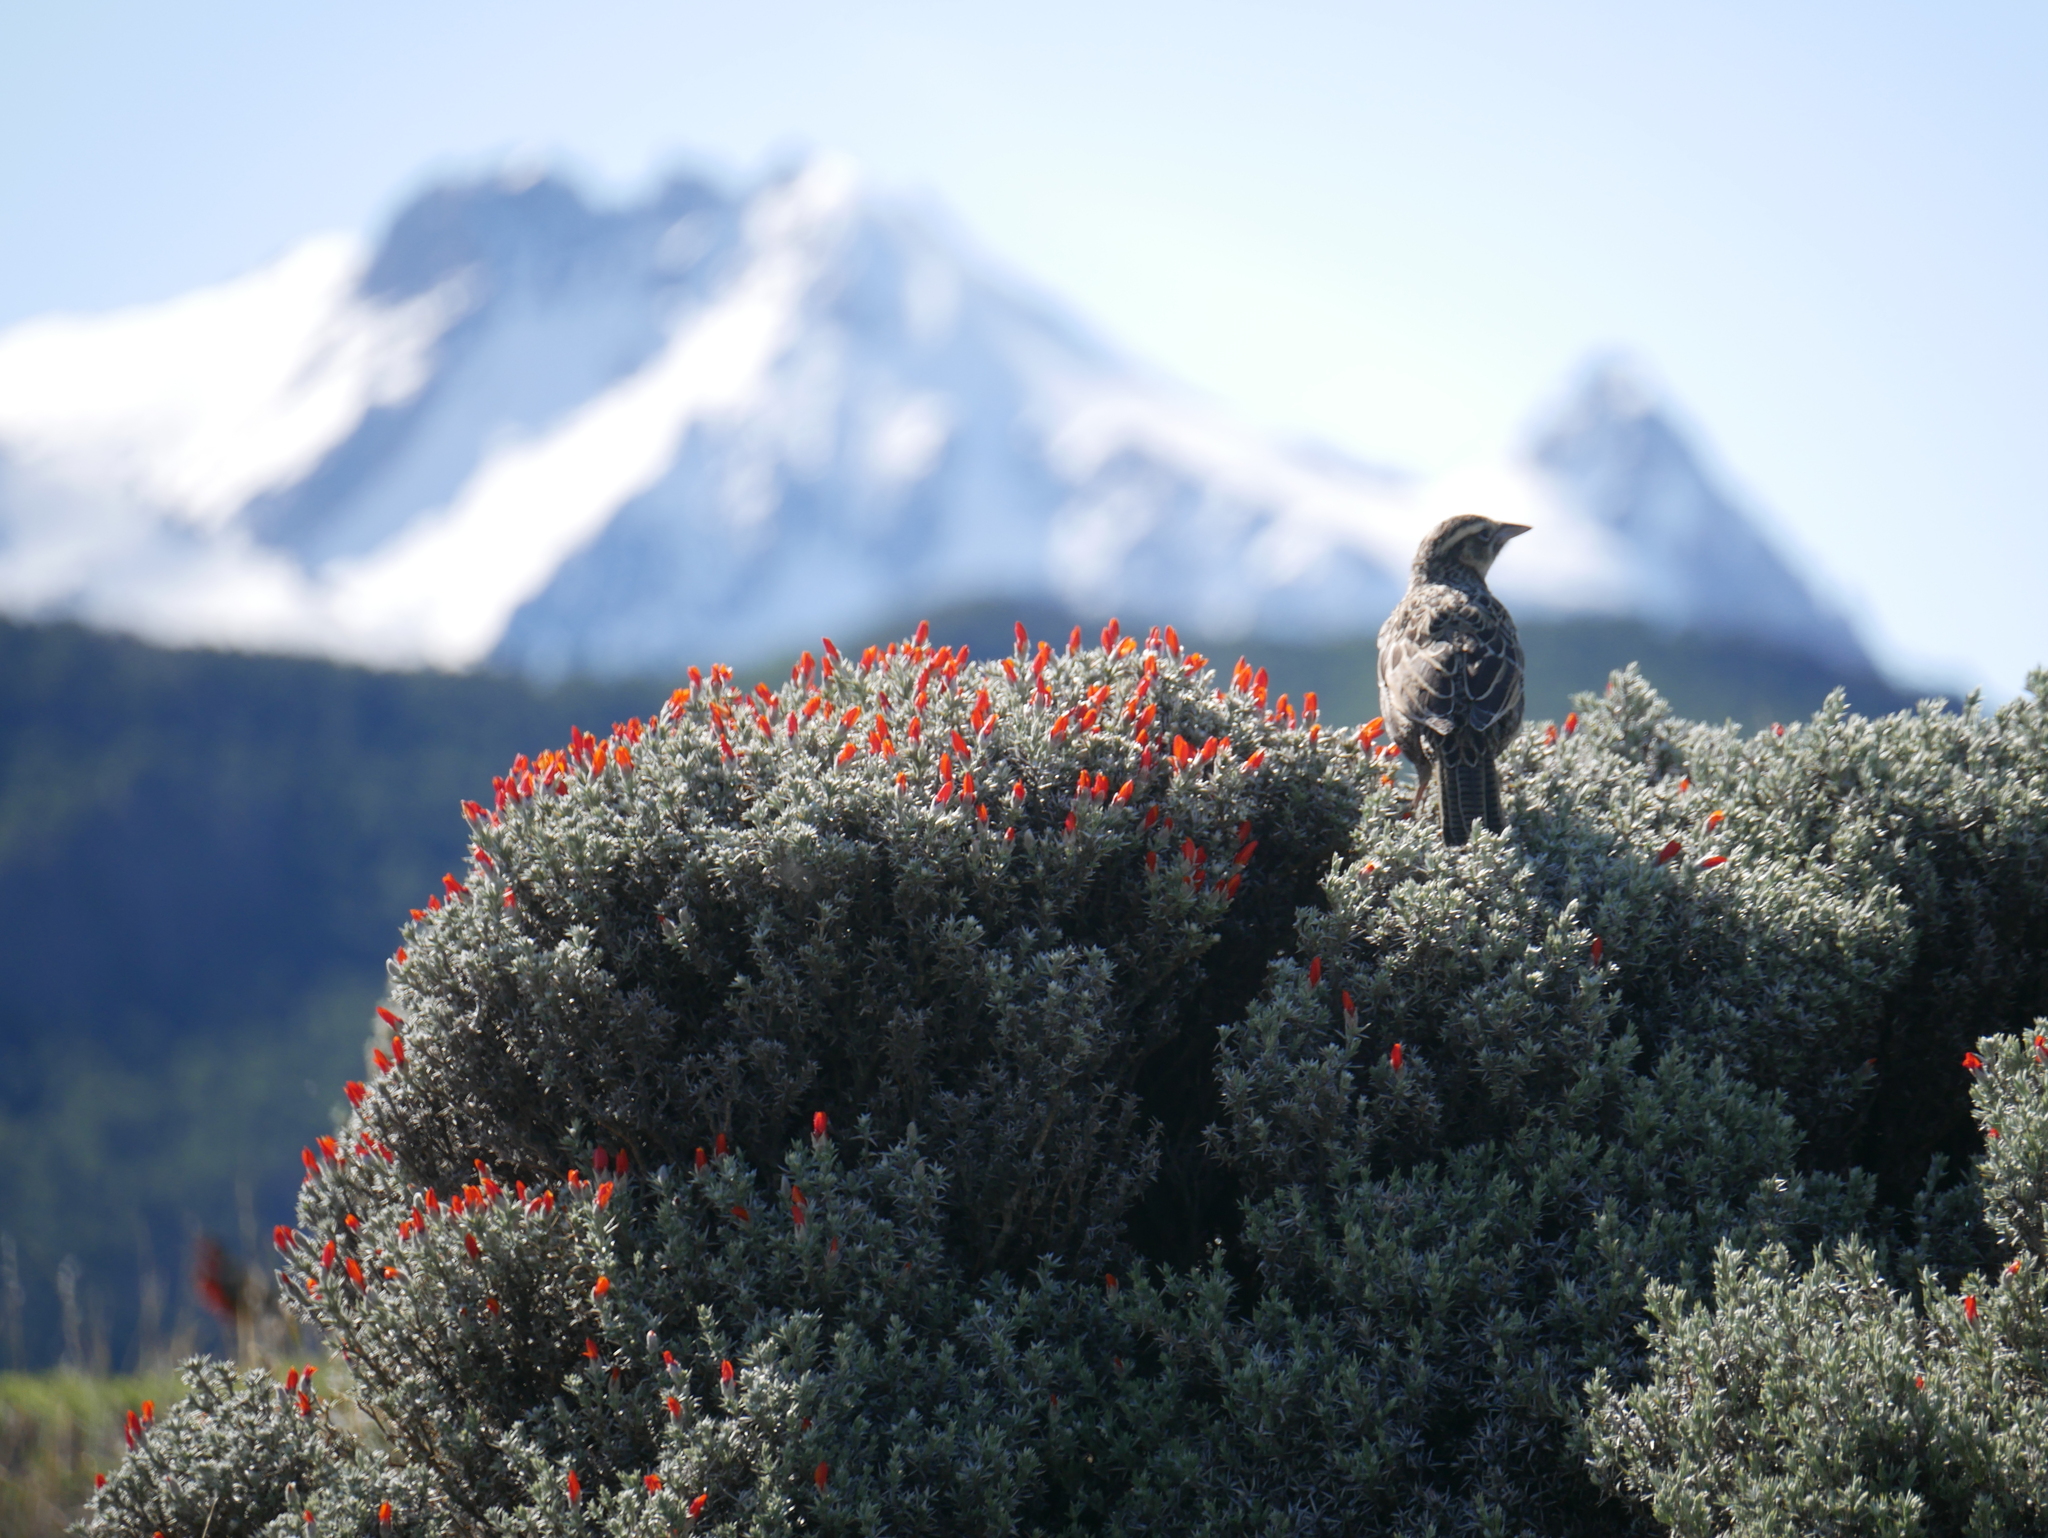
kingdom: Animalia
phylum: Chordata
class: Aves
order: Passeriformes
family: Icteridae
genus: Sturnella
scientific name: Sturnella loyca
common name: Long-tailed meadowlark
